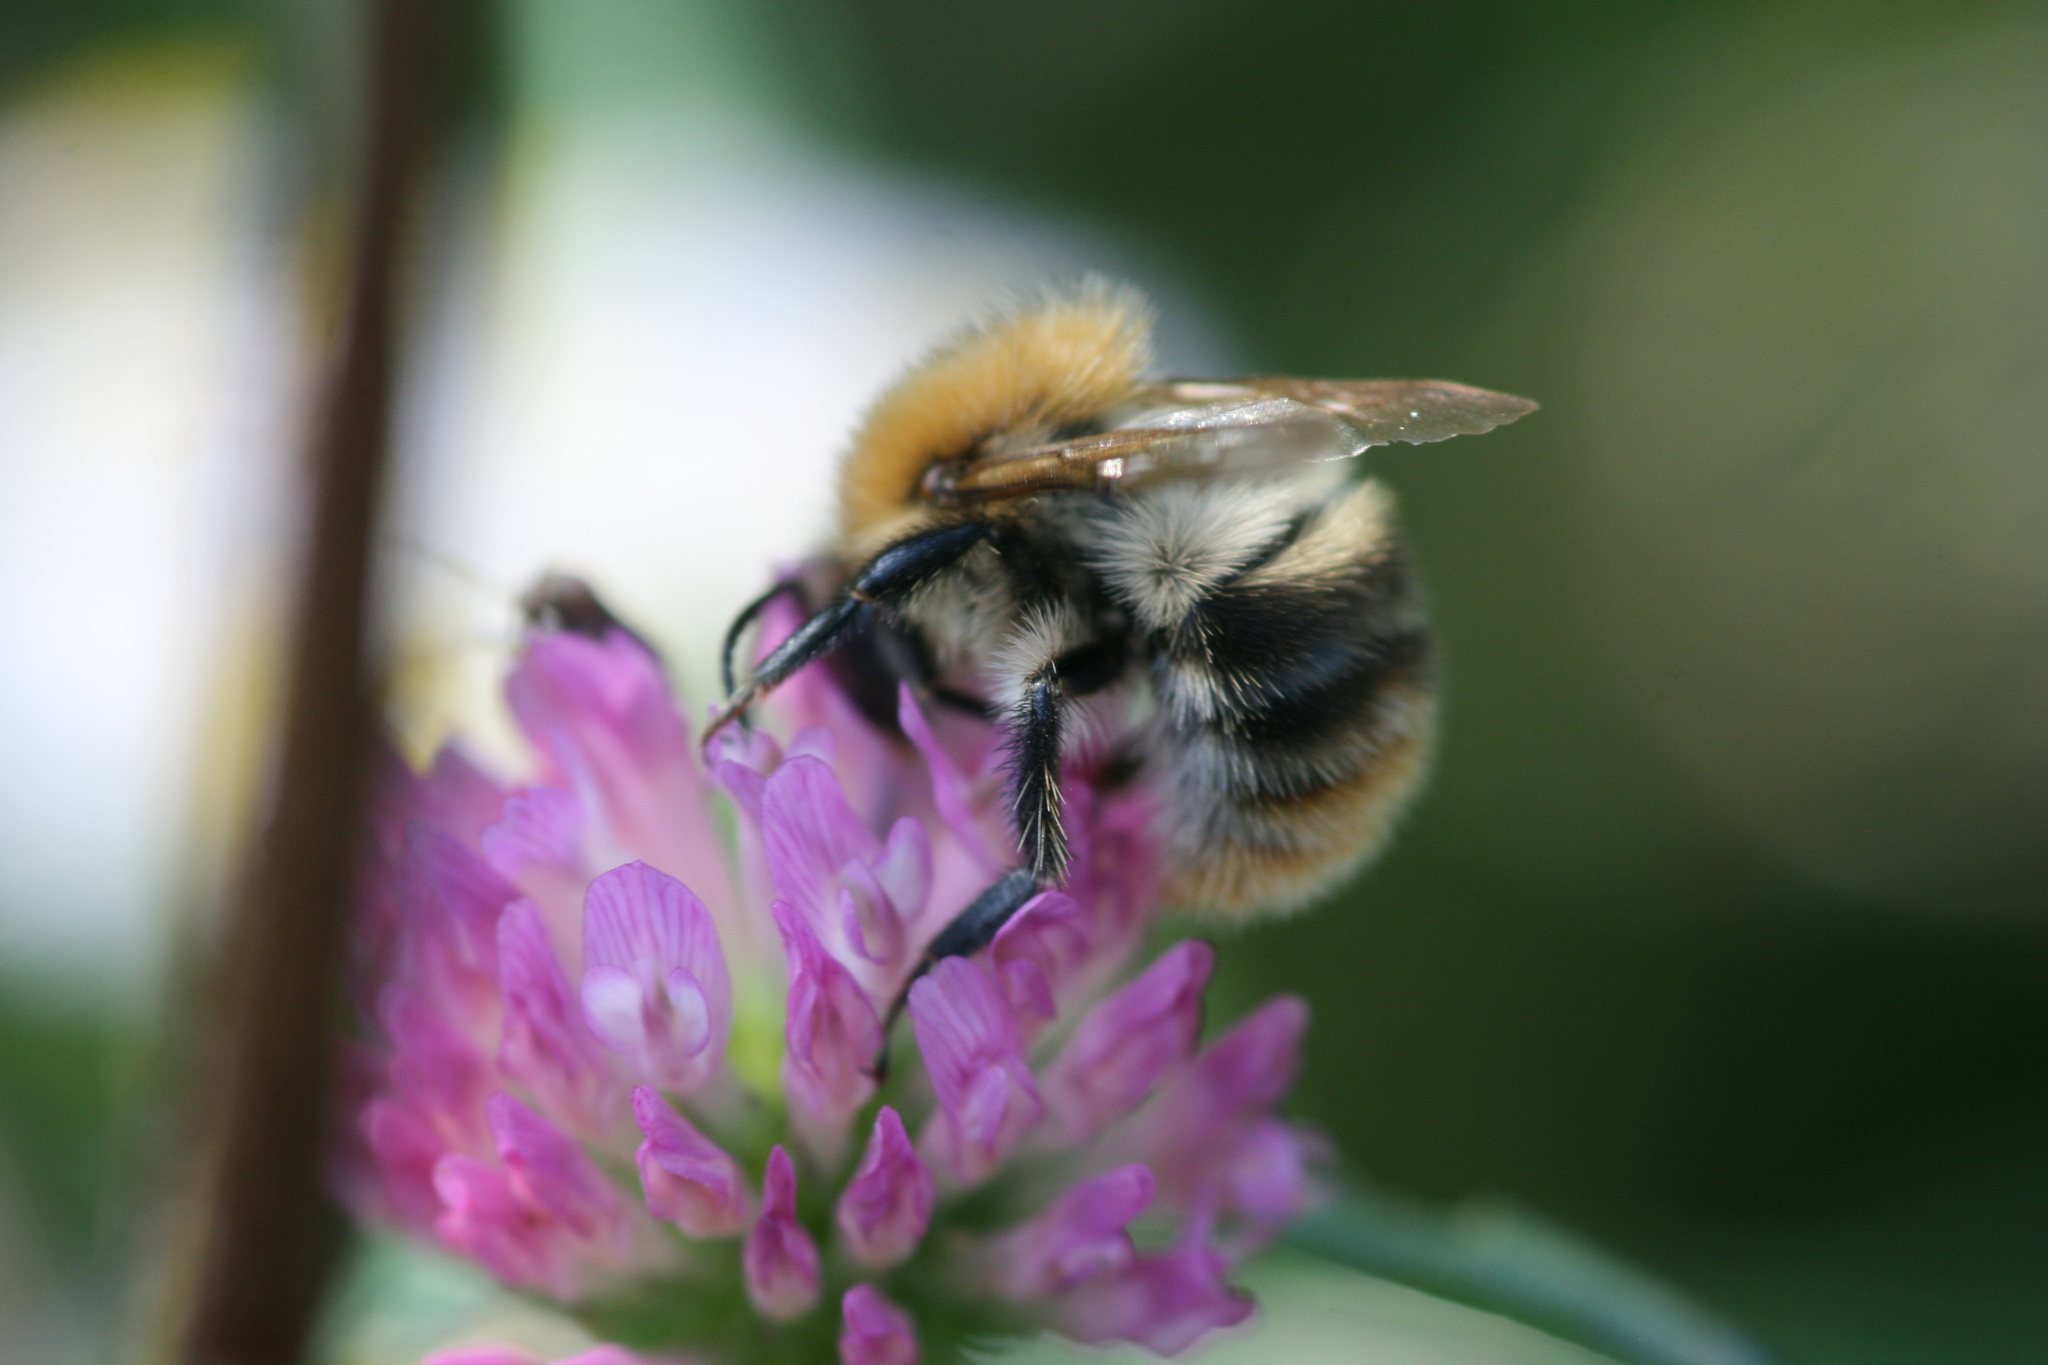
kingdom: Animalia
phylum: Arthropoda
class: Insecta
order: Hymenoptera
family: Apidae
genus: Bombus
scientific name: Bombus pascuorum
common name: Common carder bee
